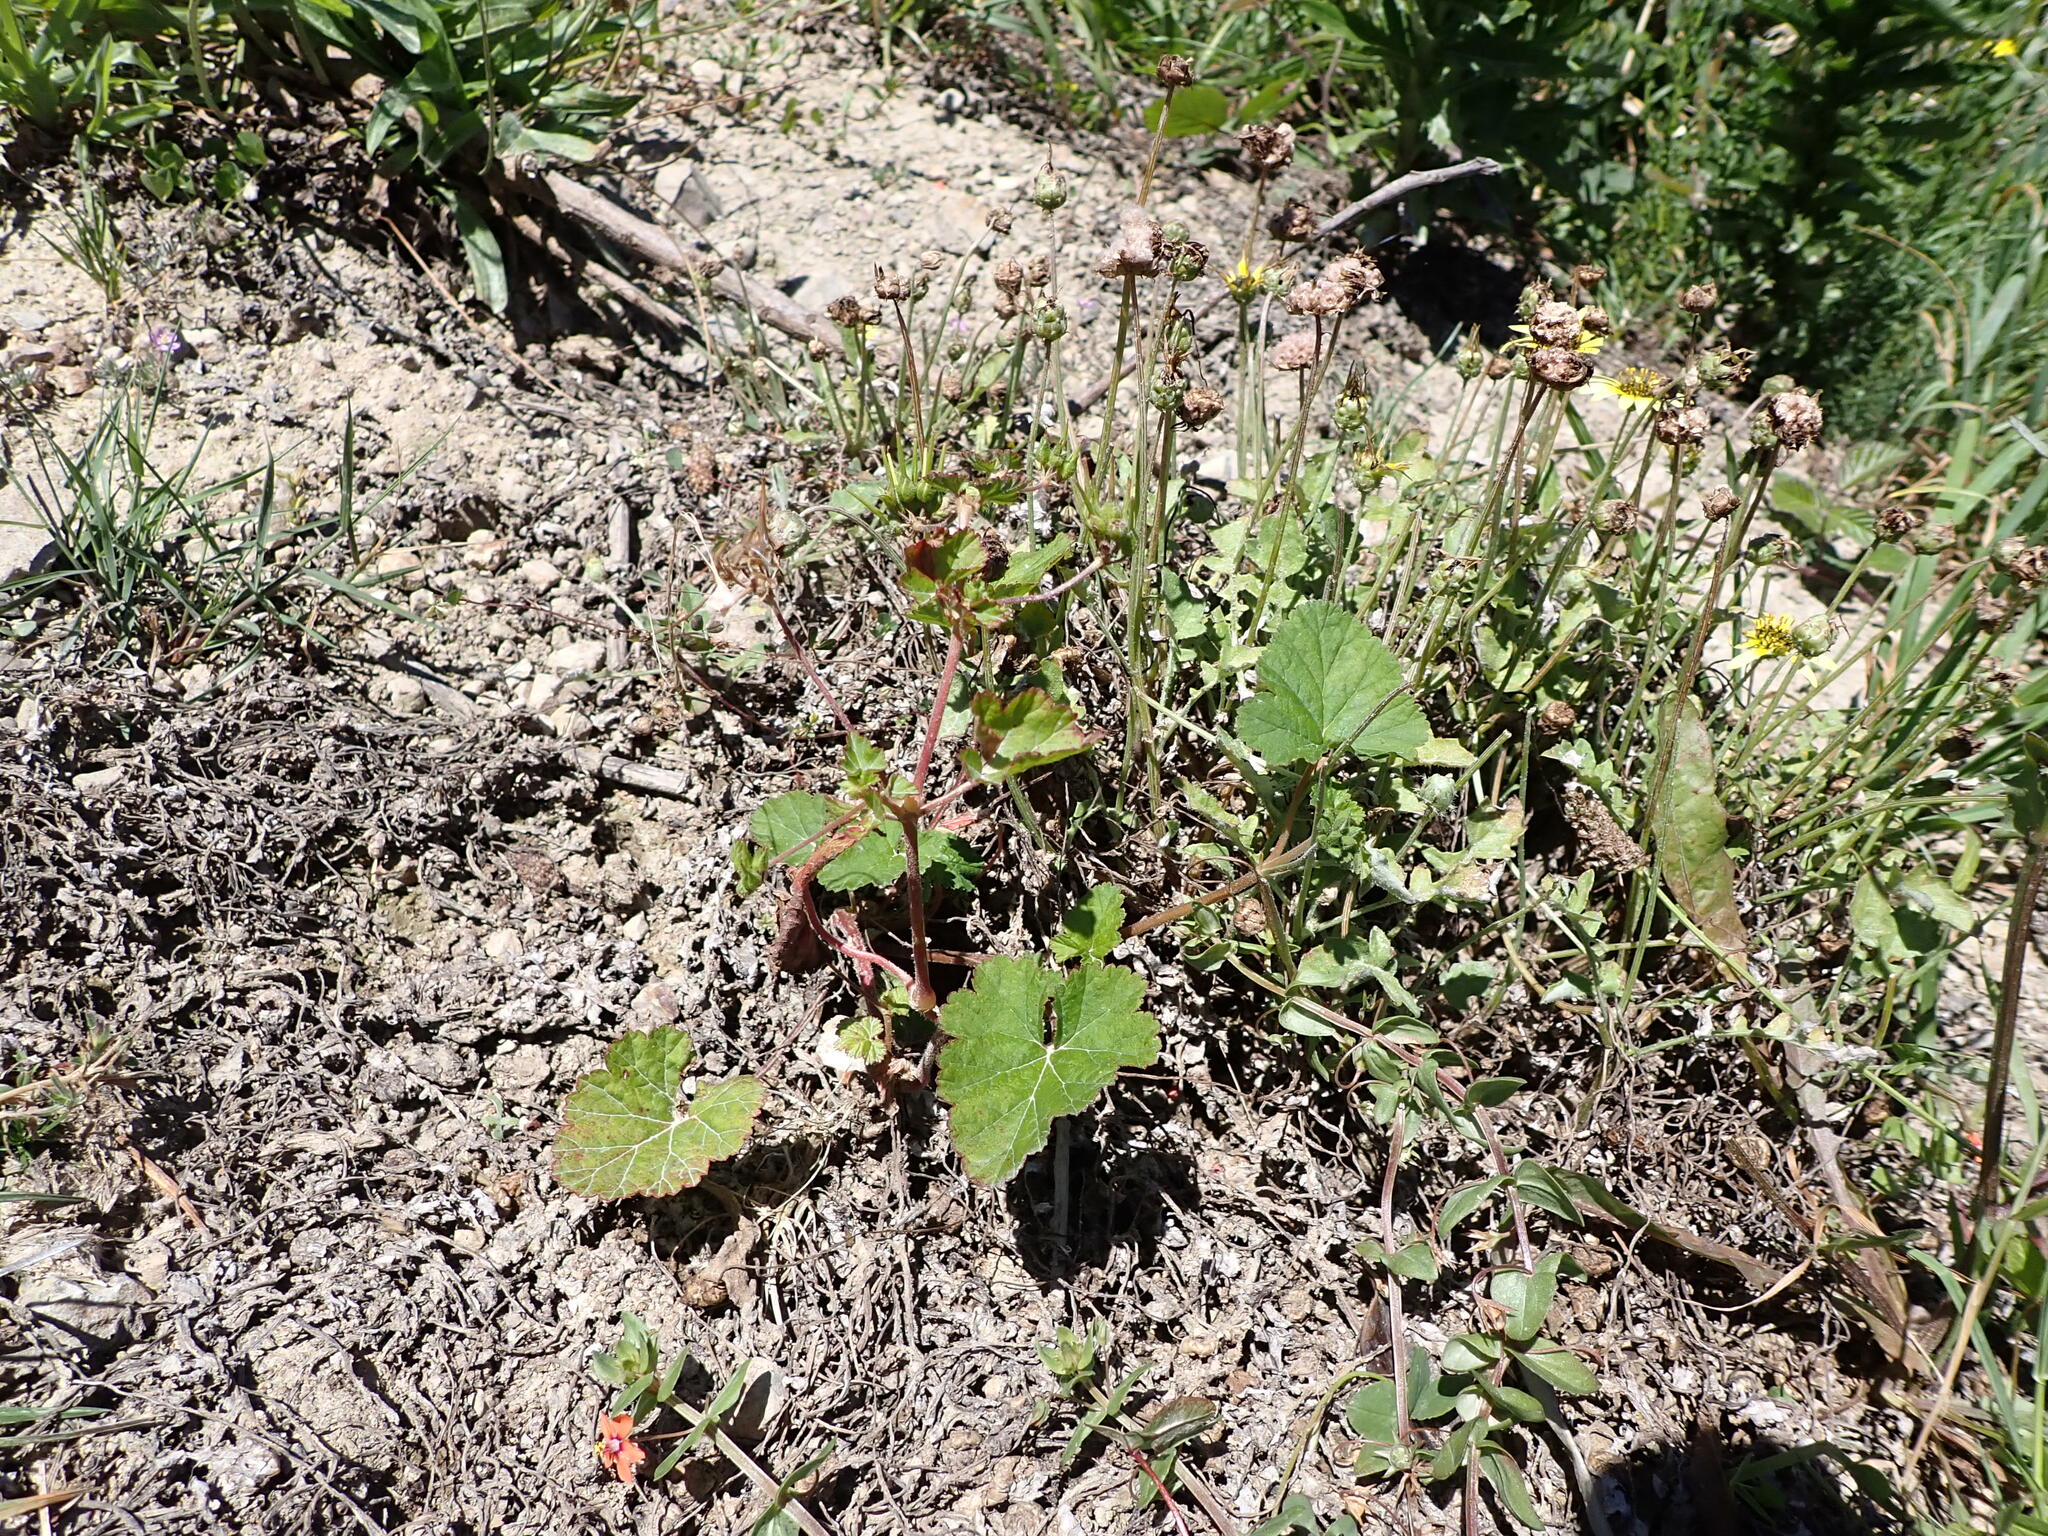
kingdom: Plantae
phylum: Tracheophyta
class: Magnoliopsida
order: Geraniales
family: Geraniaceae
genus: Pelargonium
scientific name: Pelargonium inodorum
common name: Kopata geranium
